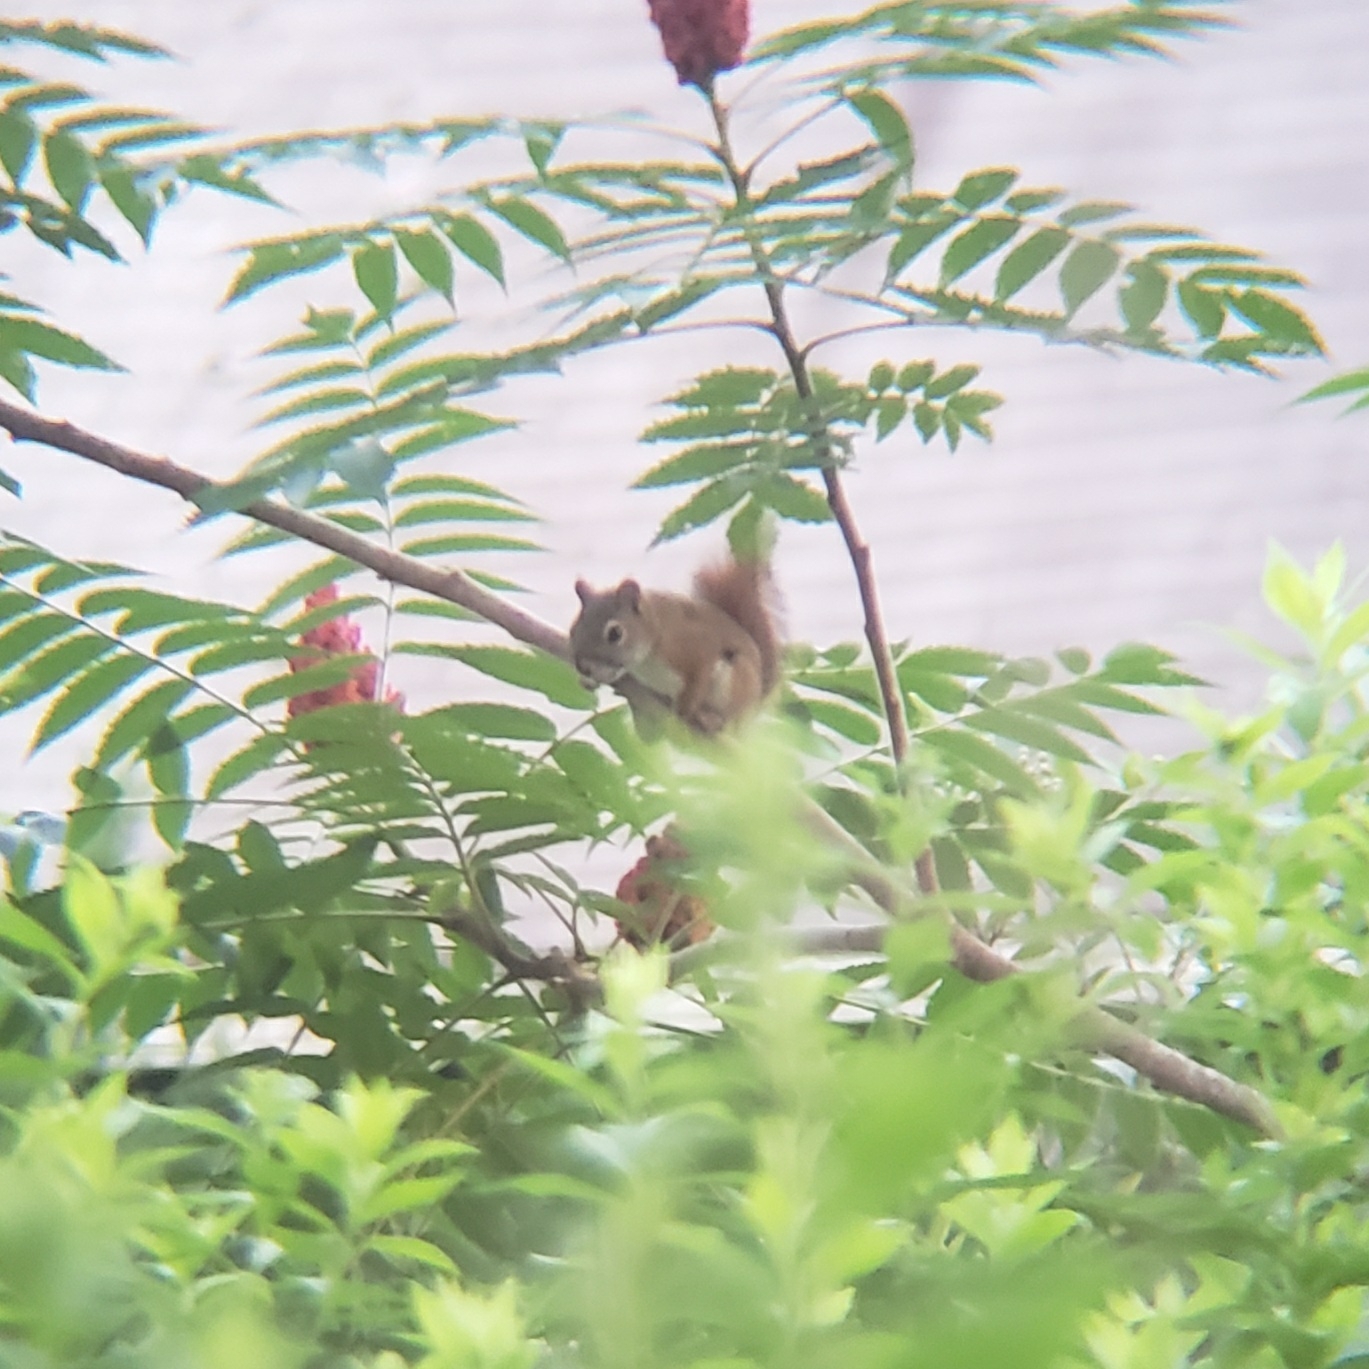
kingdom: Animalia
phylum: Chordata
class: Mammalia
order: Rodentia
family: Sciuridae
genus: Tamiasciurus
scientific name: Tamiasciurus hudsonicus
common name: Red squirrel
